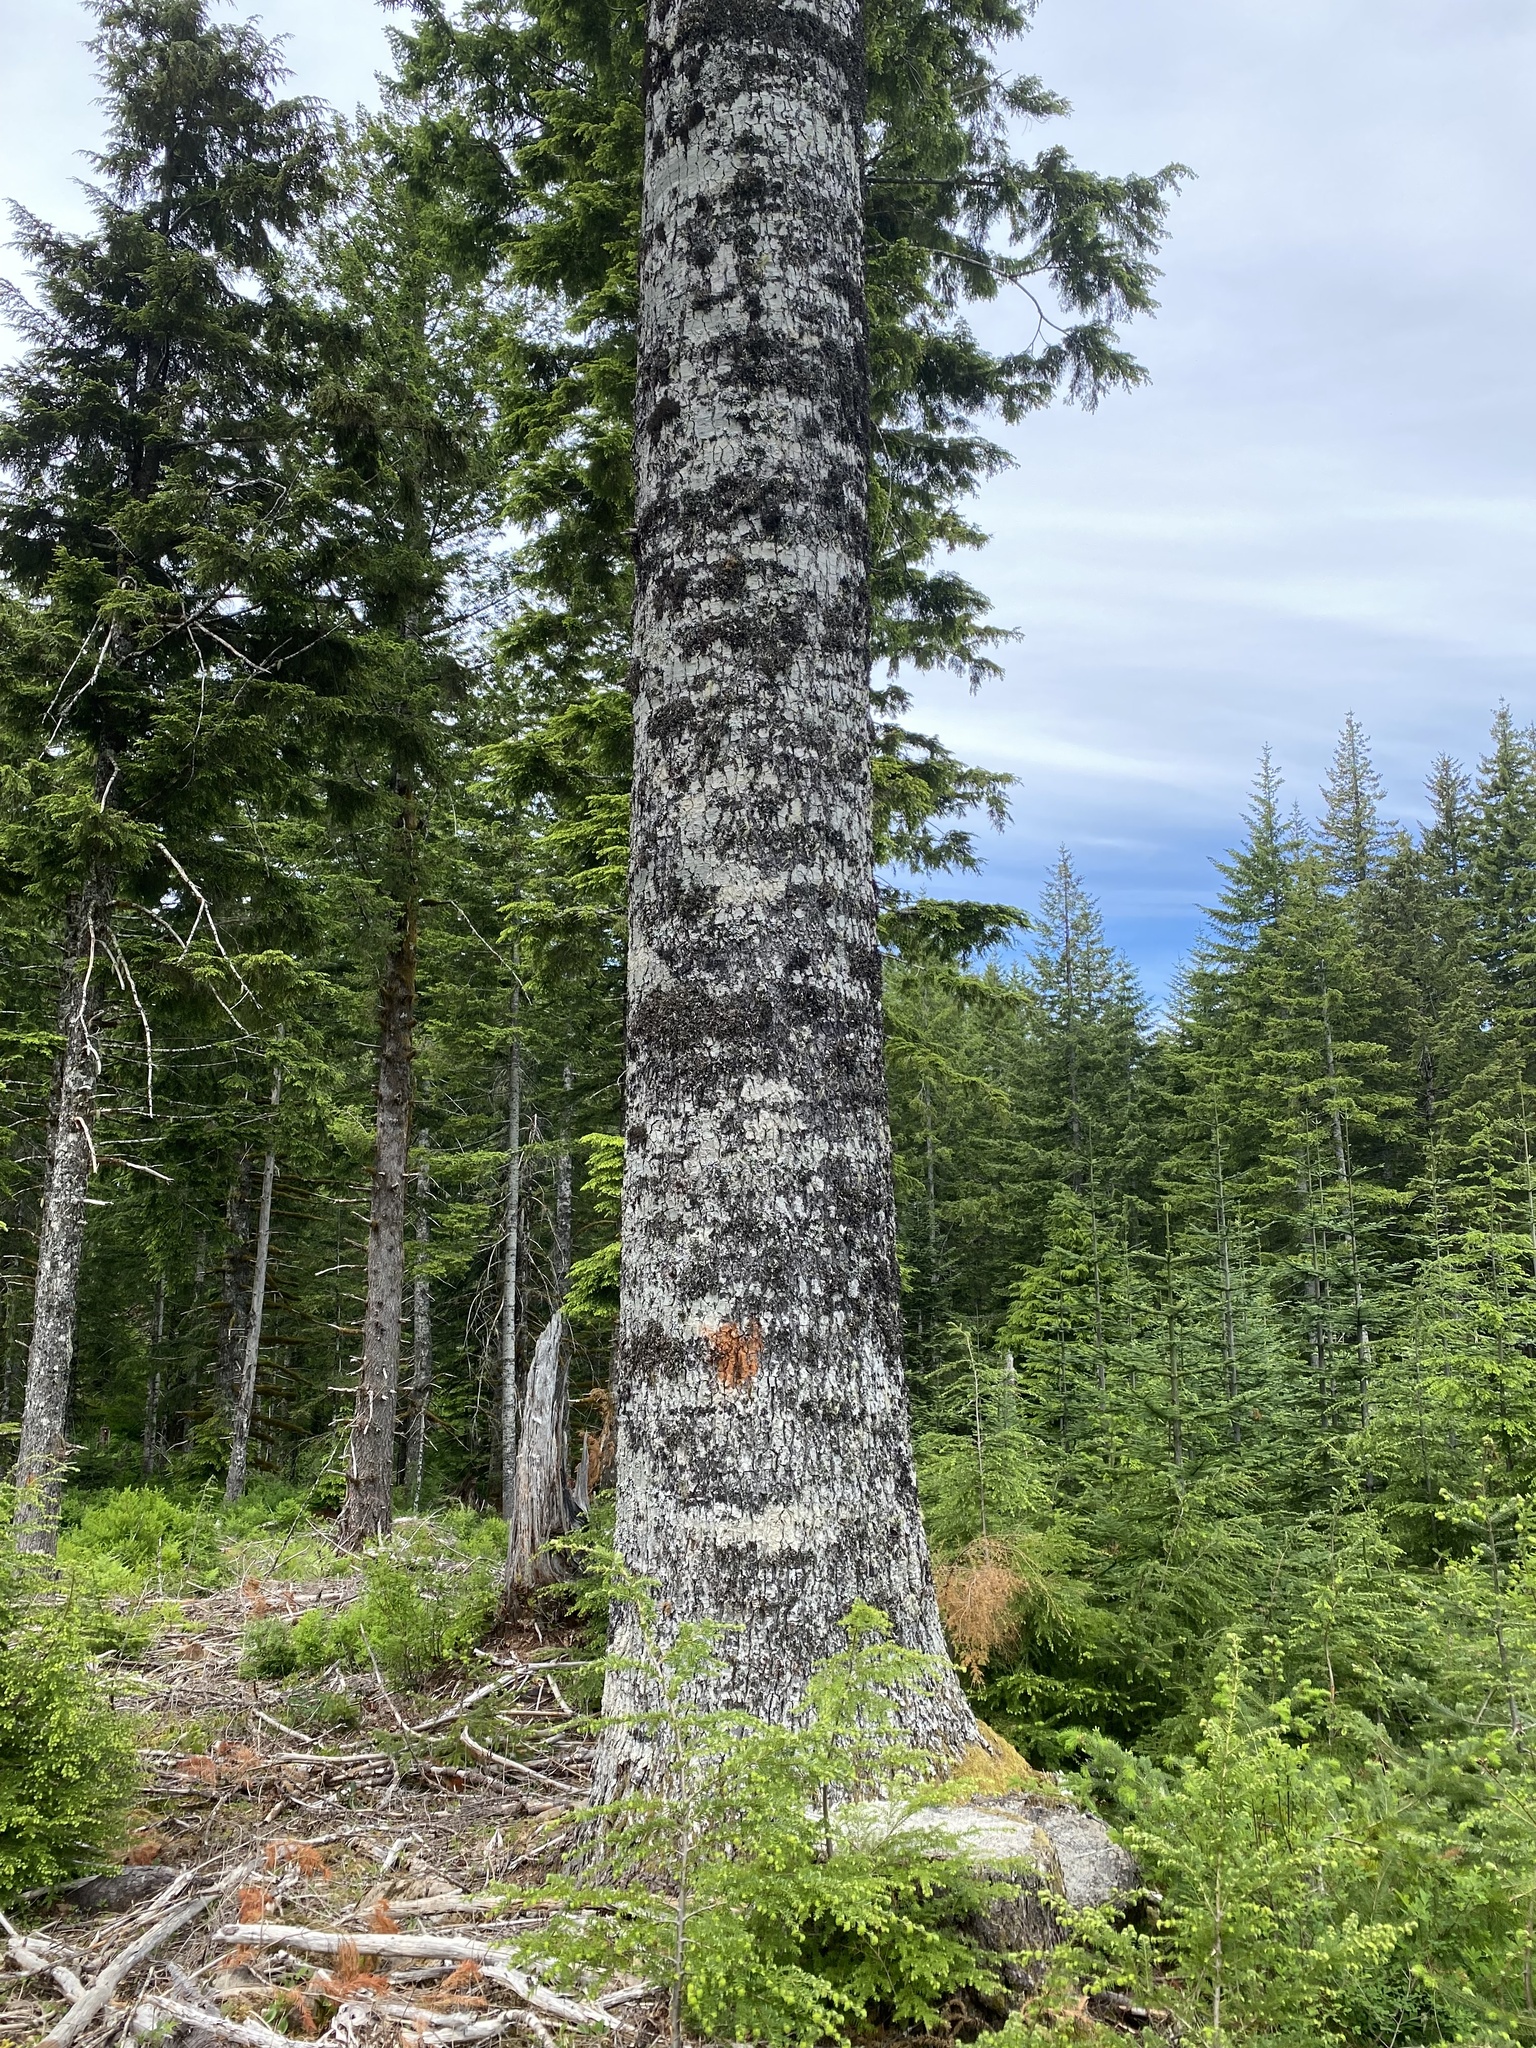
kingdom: Plantae
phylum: Tracheophyta
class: Pinopsida
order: Pinales
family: Pinaceae
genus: Abies
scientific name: Abies procera
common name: Noble fir
